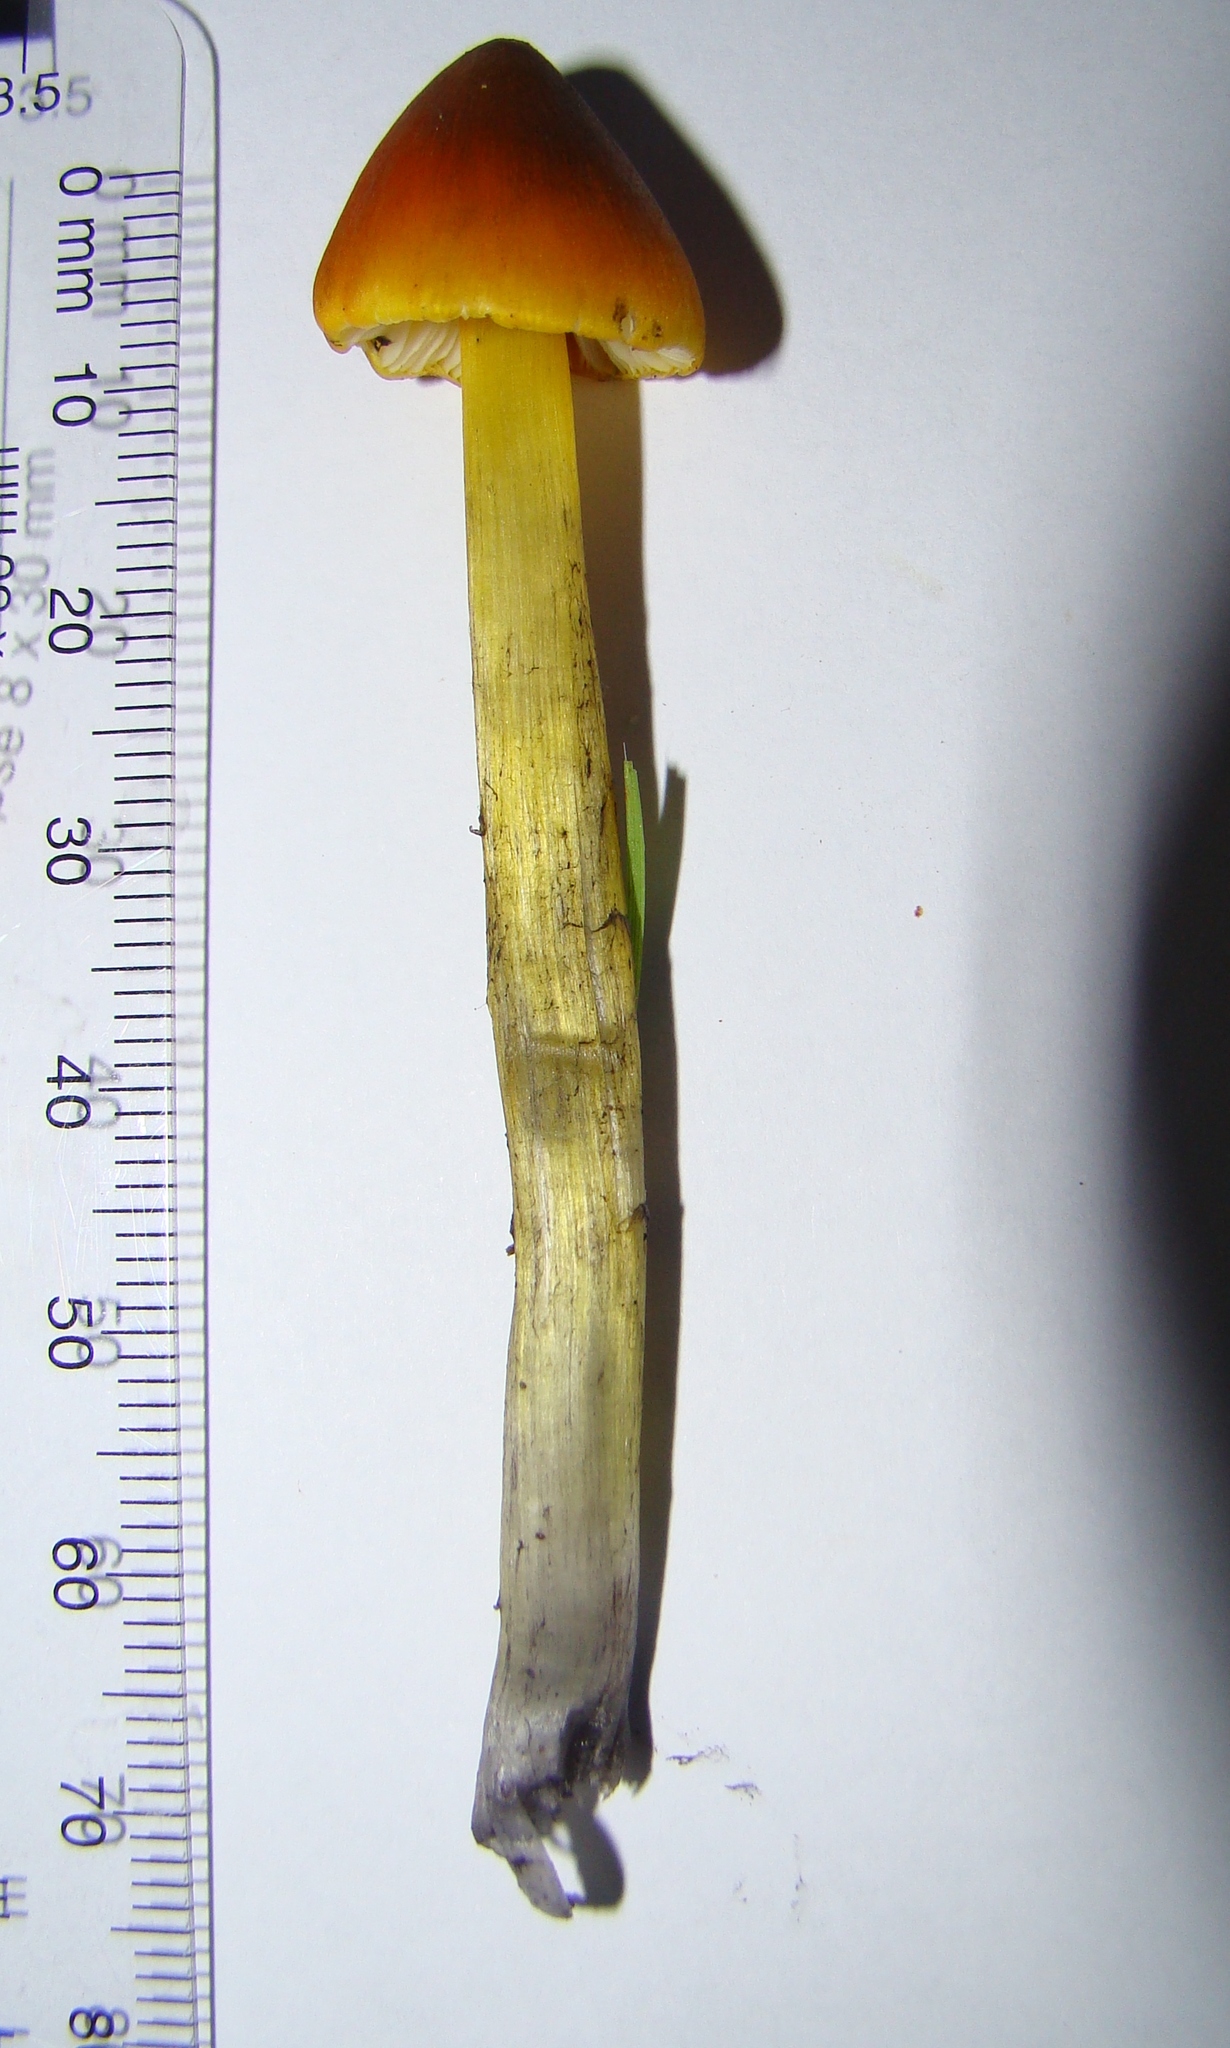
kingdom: Fungi
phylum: Basidiomycota
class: Agaricomycetes
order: Agaricales
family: Hygrophoraceae
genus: Hygrocybe
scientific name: Hygrocybe conica
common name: Blackening wax-cap
